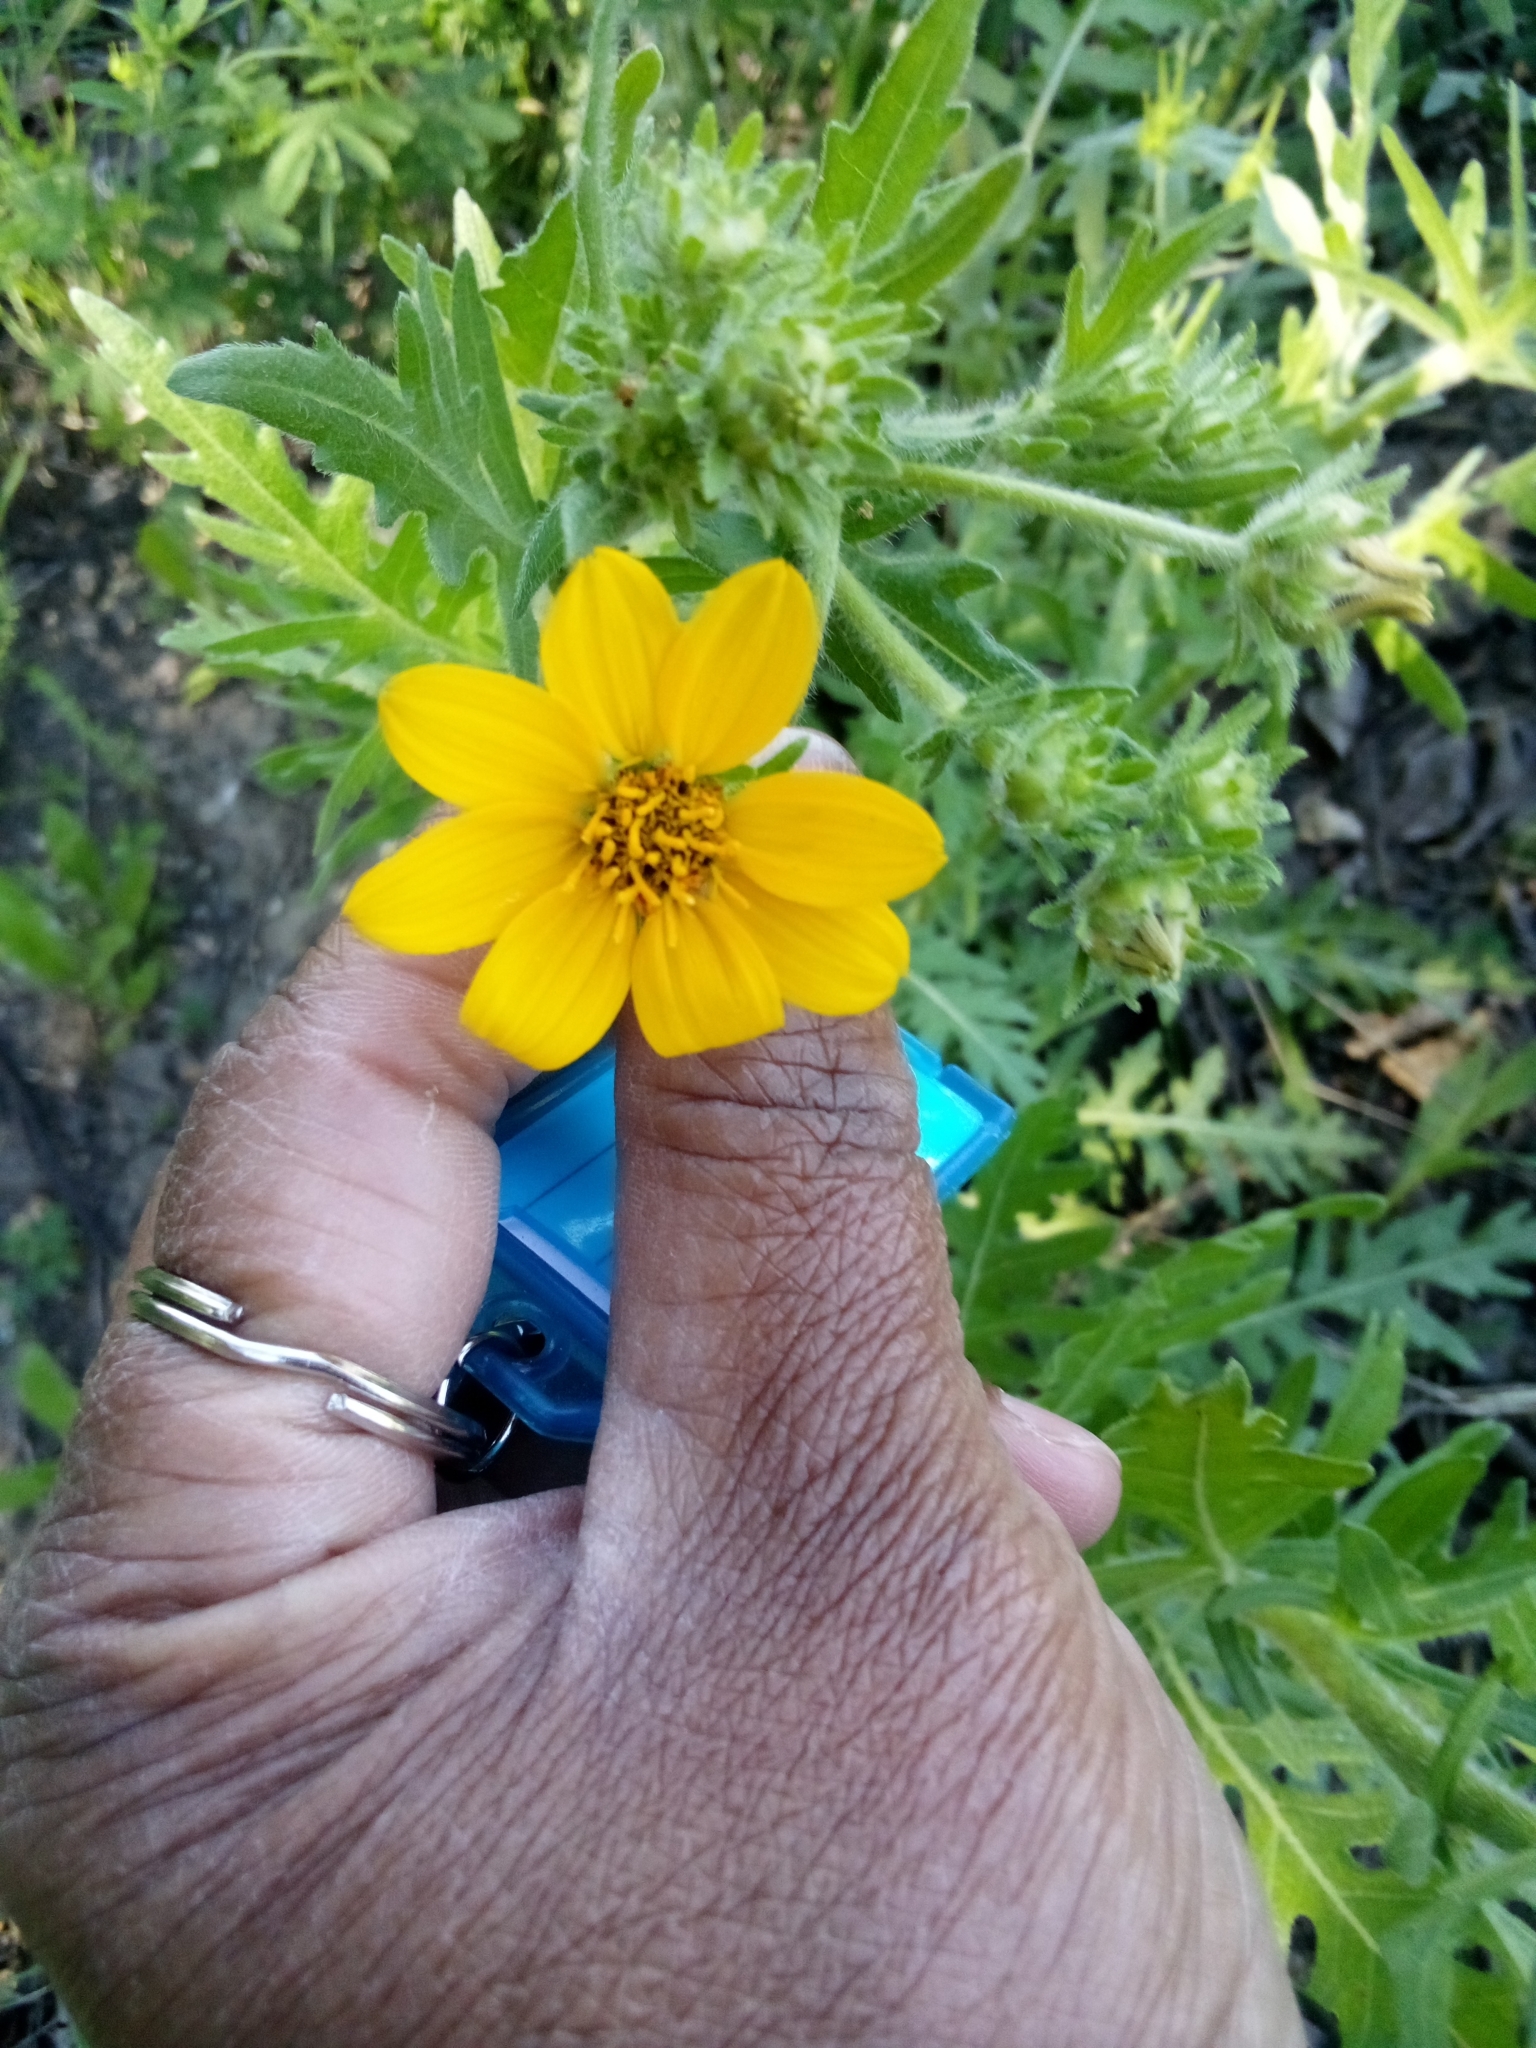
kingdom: Plantae
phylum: Tracheophyta
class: Magnoliopsida
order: Asterales
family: Asteraceae
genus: Engelmannia
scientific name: Engelmannia peristenia
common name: Engelmann's daisy
